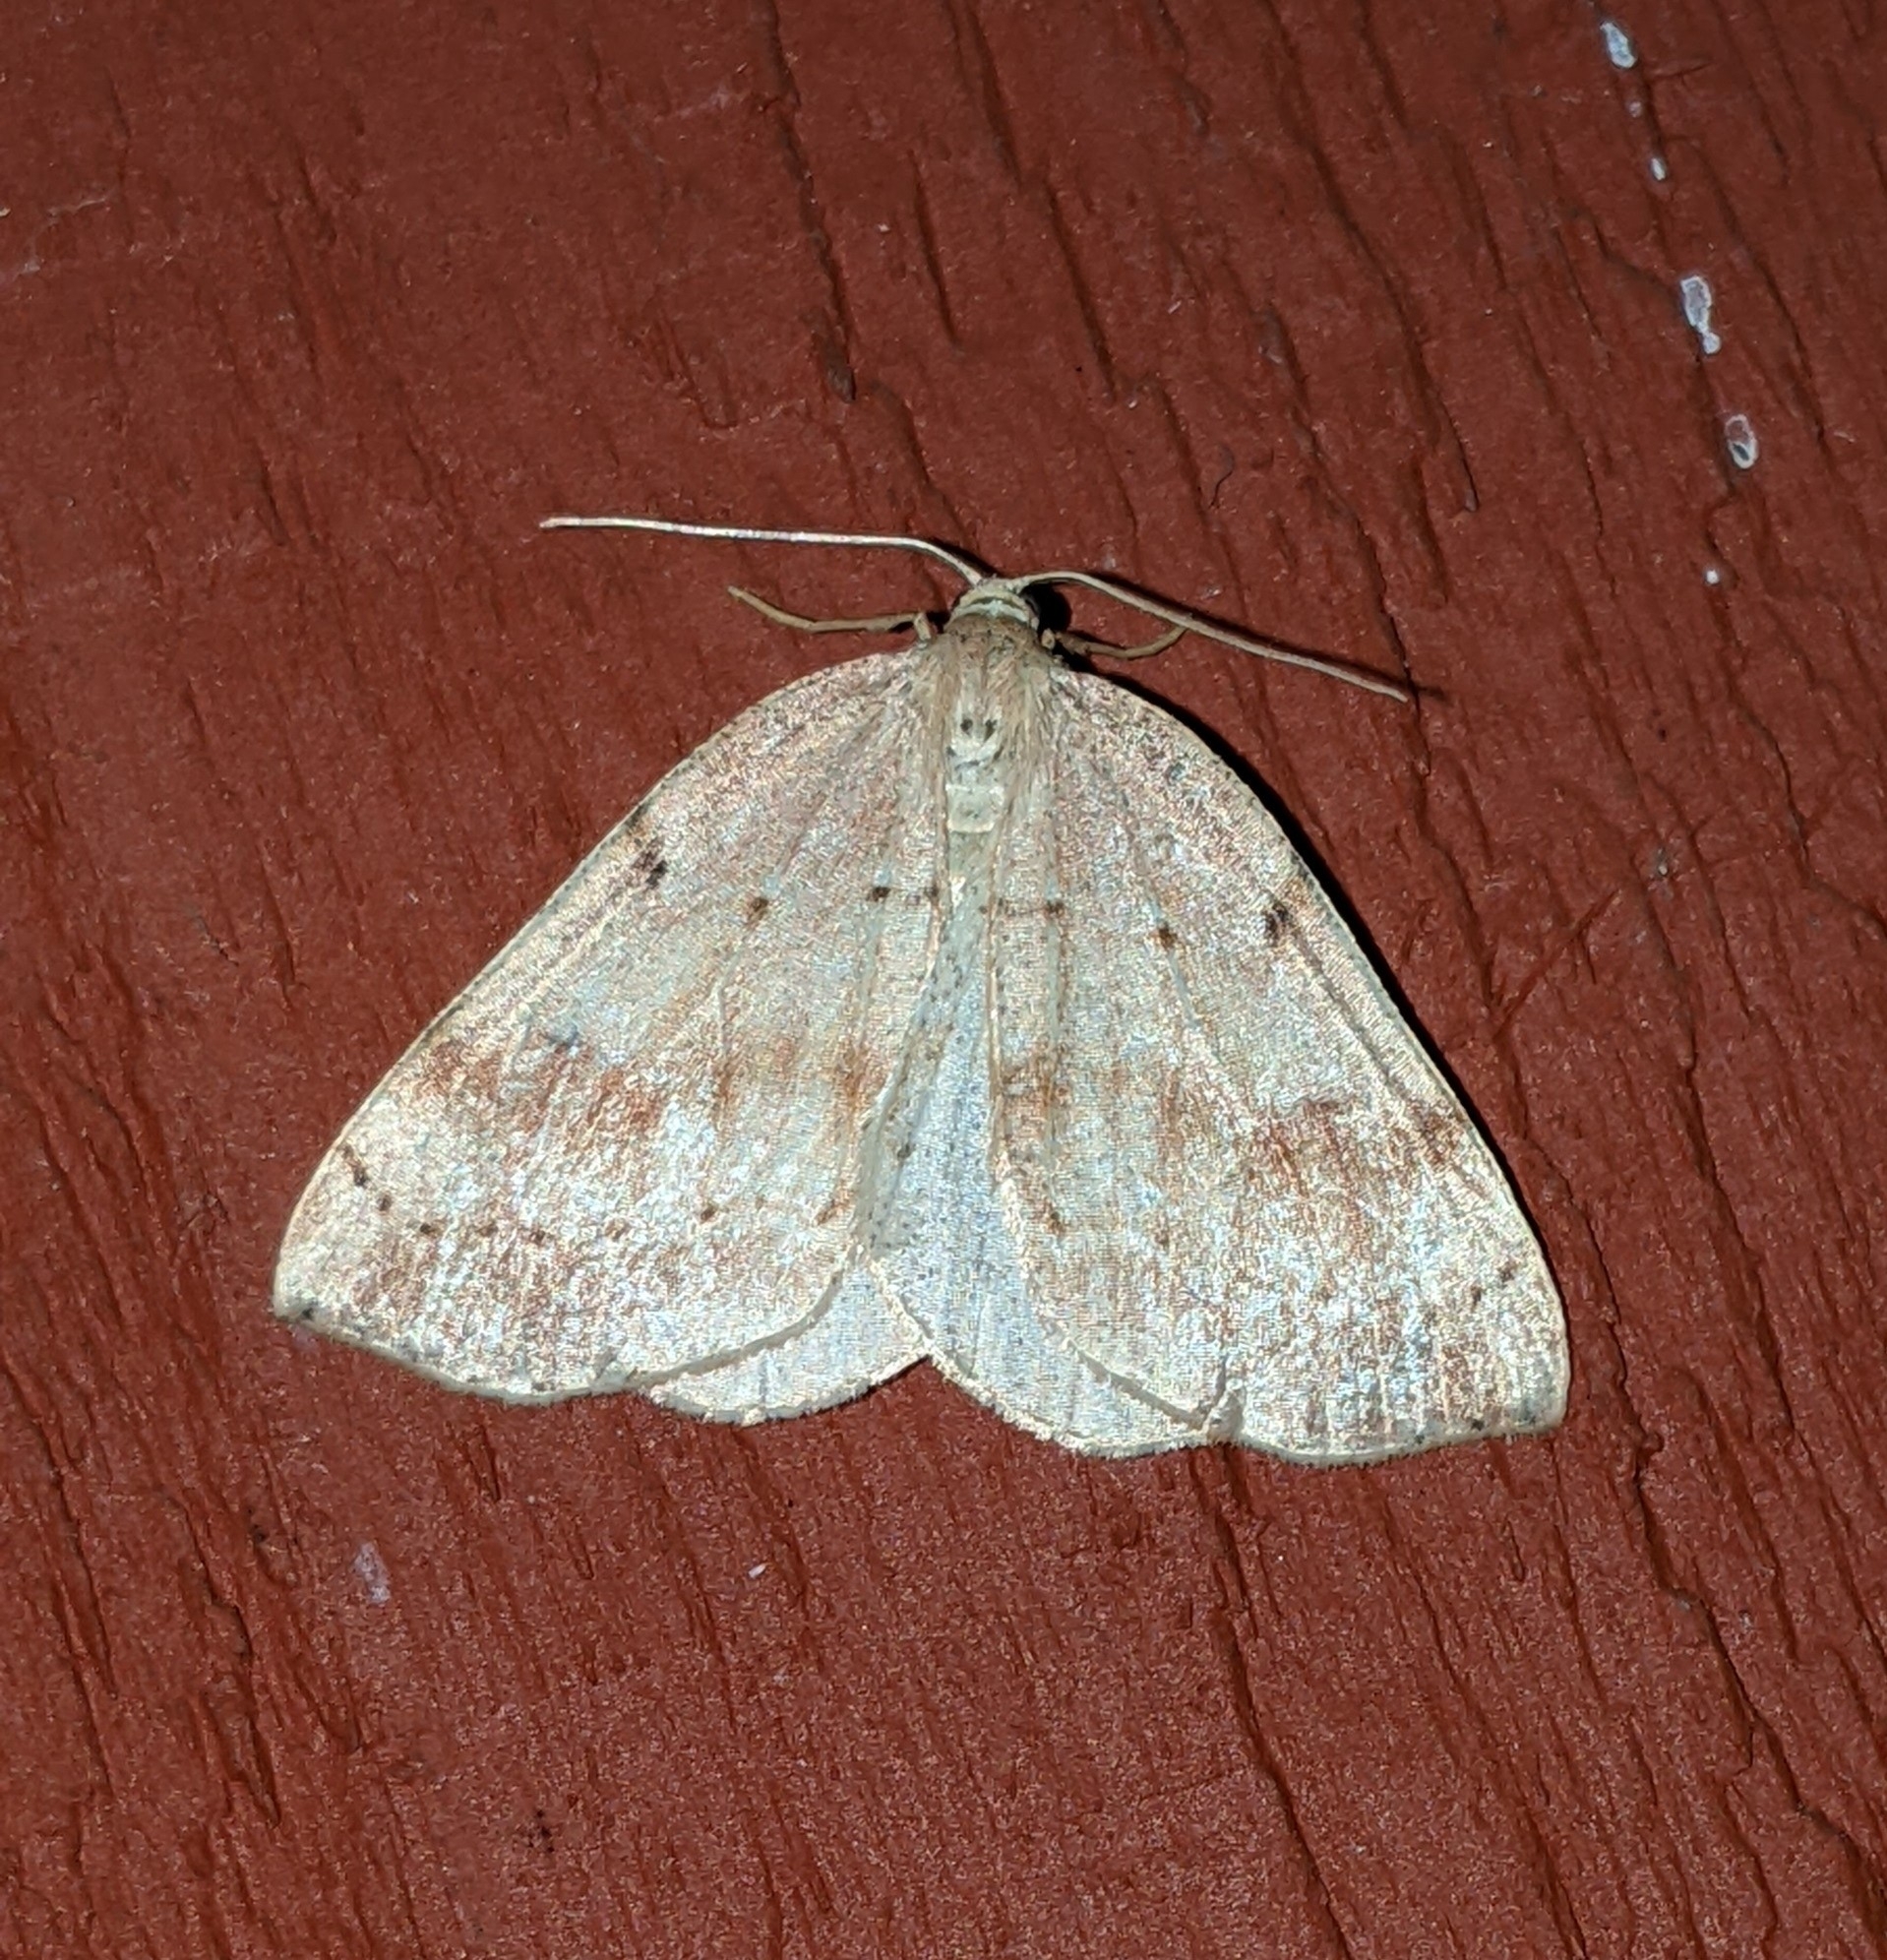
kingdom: Animalia
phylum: Arthropoda
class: Insecta
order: Lepidoptera
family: Geometridae
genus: Thallophaga
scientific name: Thallophaga hyperborea
